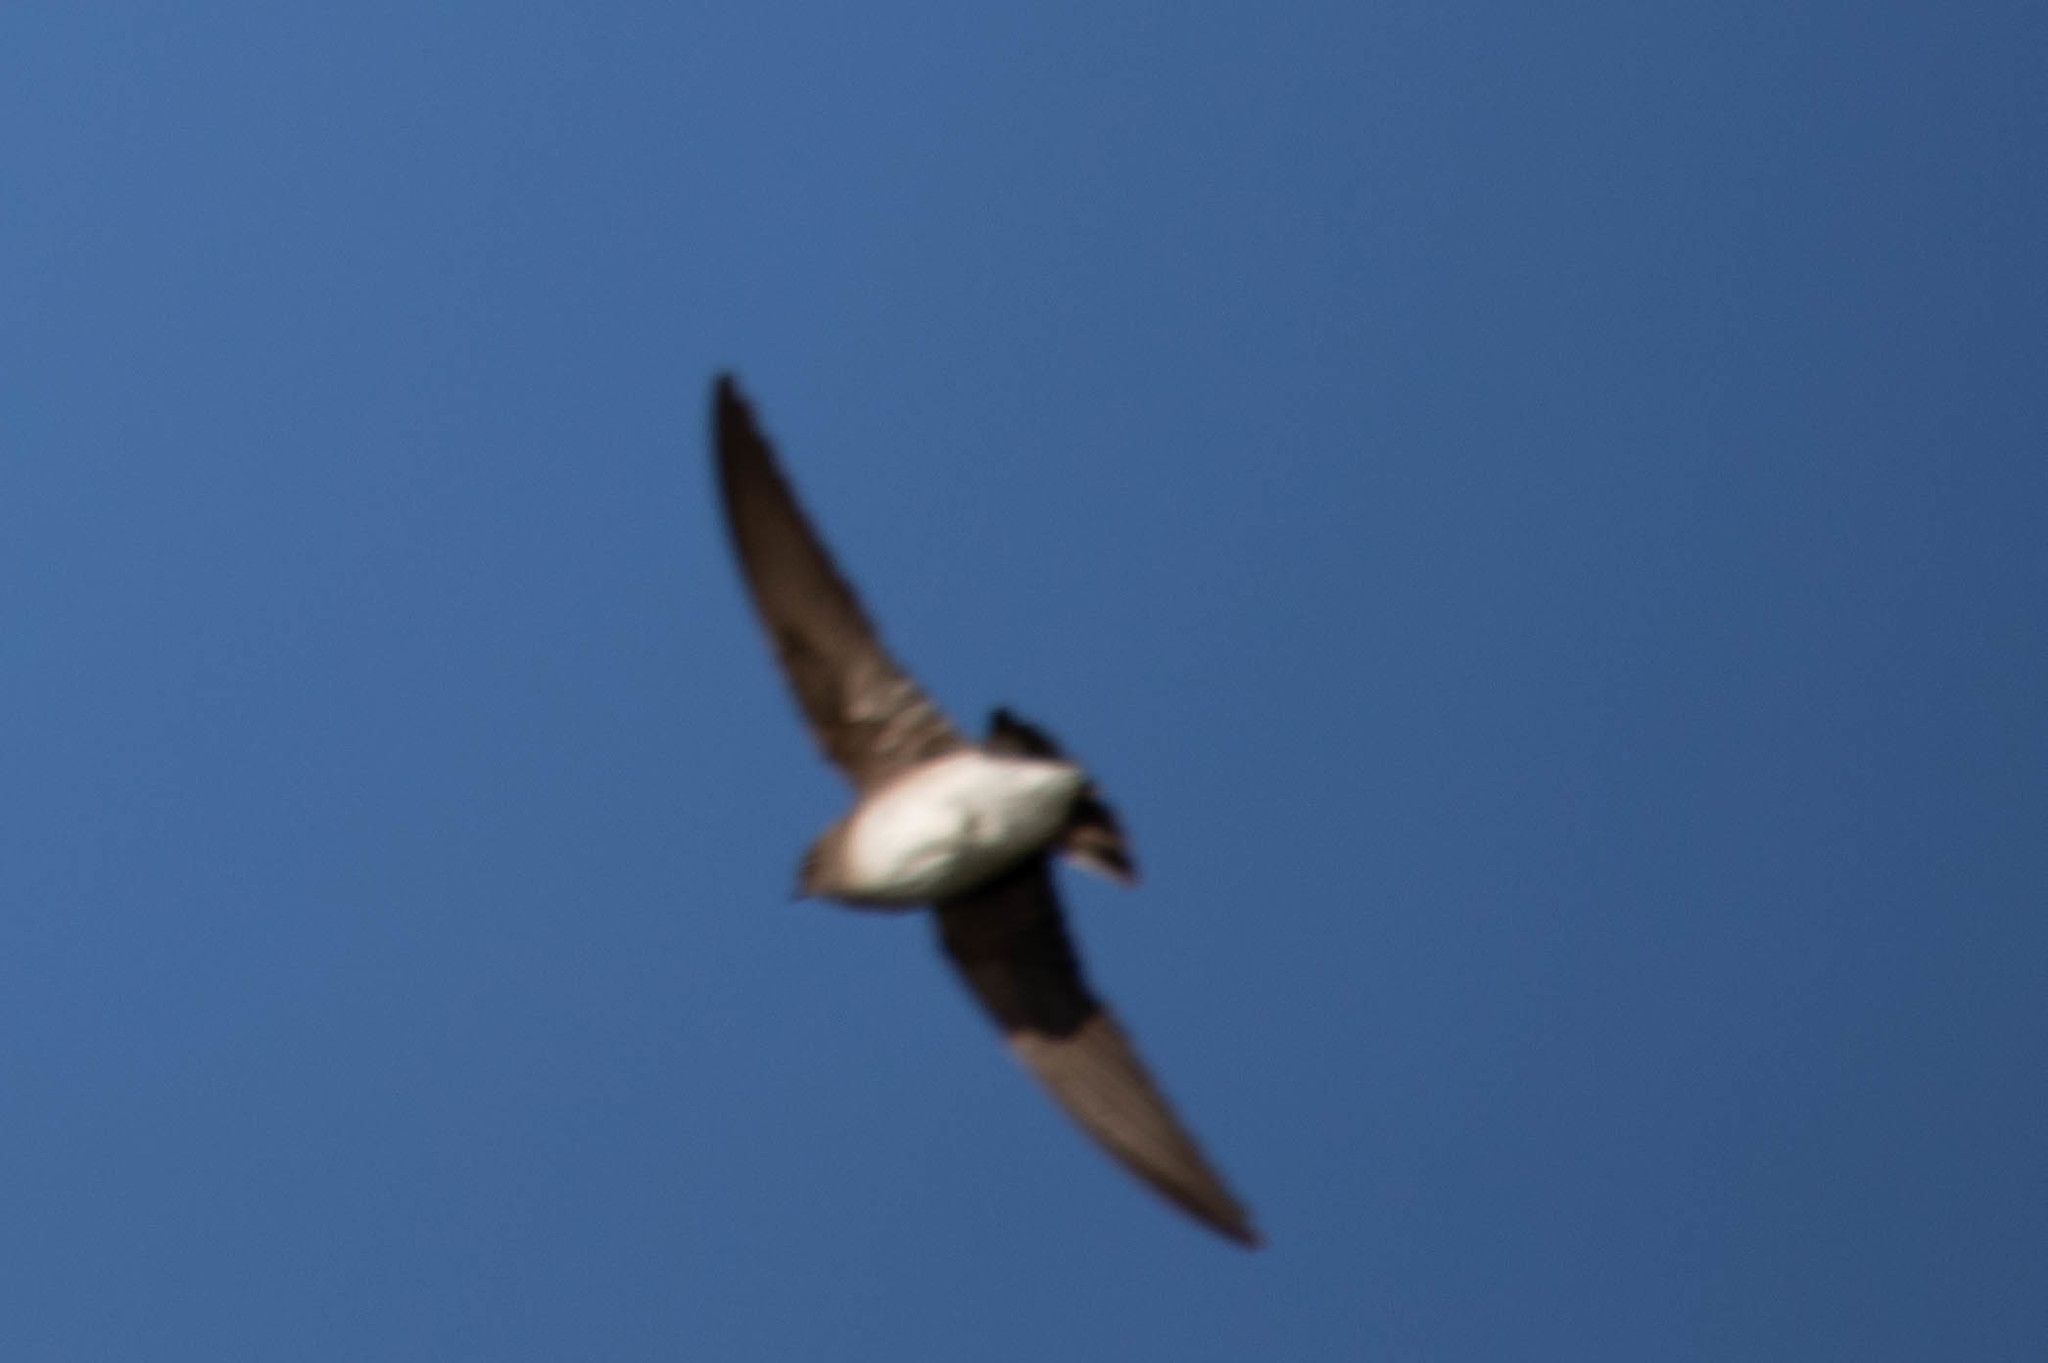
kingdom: Animalia
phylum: Chordata
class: Aves
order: Passeriformes
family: Hirundinidae
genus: Stelgidopteryx
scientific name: Stelgidopteryx serripennis
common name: Northern rough-winged swallow
